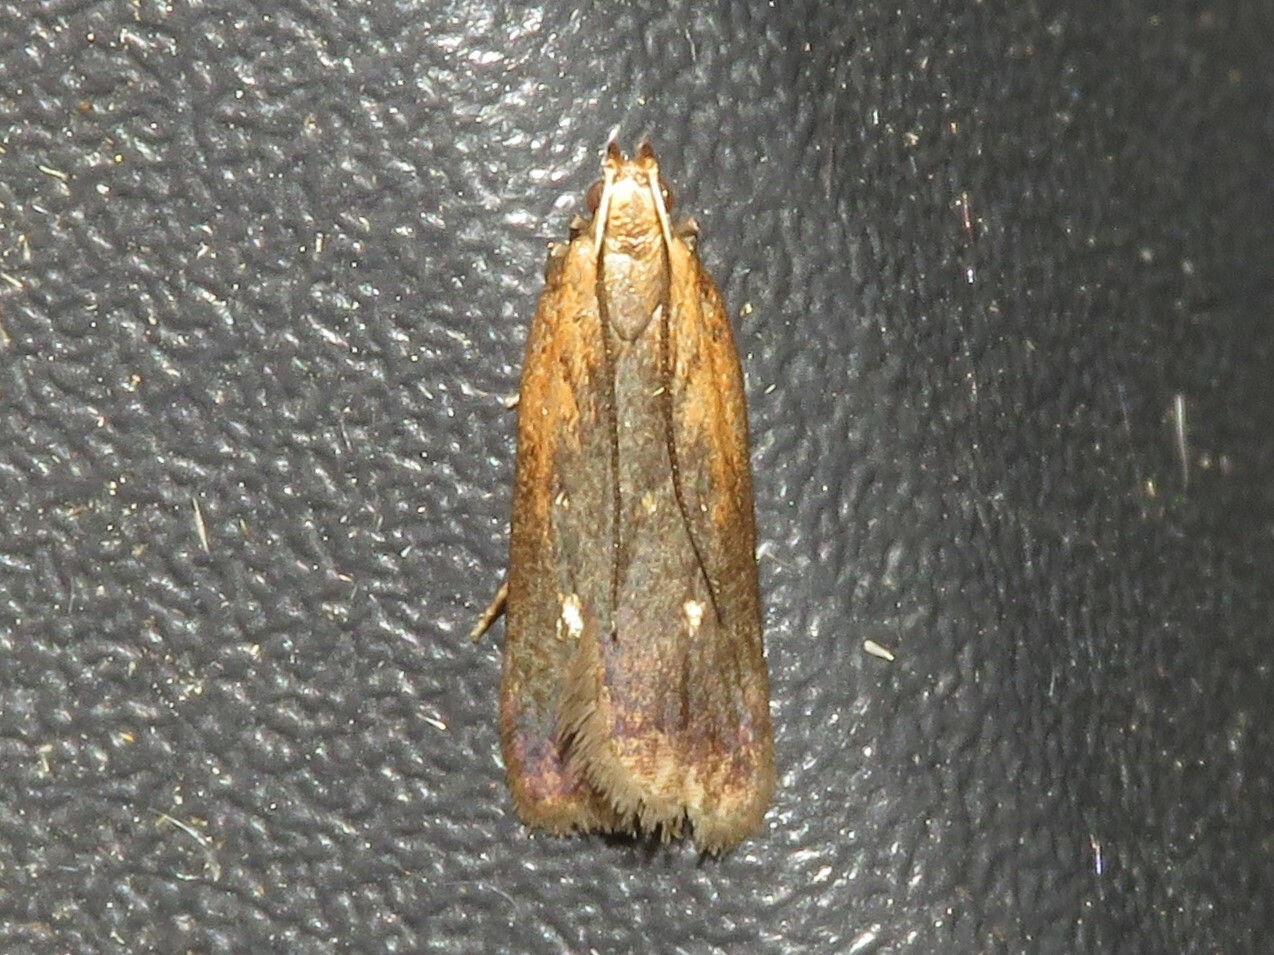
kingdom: Animalia
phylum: Arthropoda
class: Insecta
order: Lepidoptera
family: Gelechiidae
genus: Dichomeris
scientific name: Dichomeris copa
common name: Copa dichomeris moth
